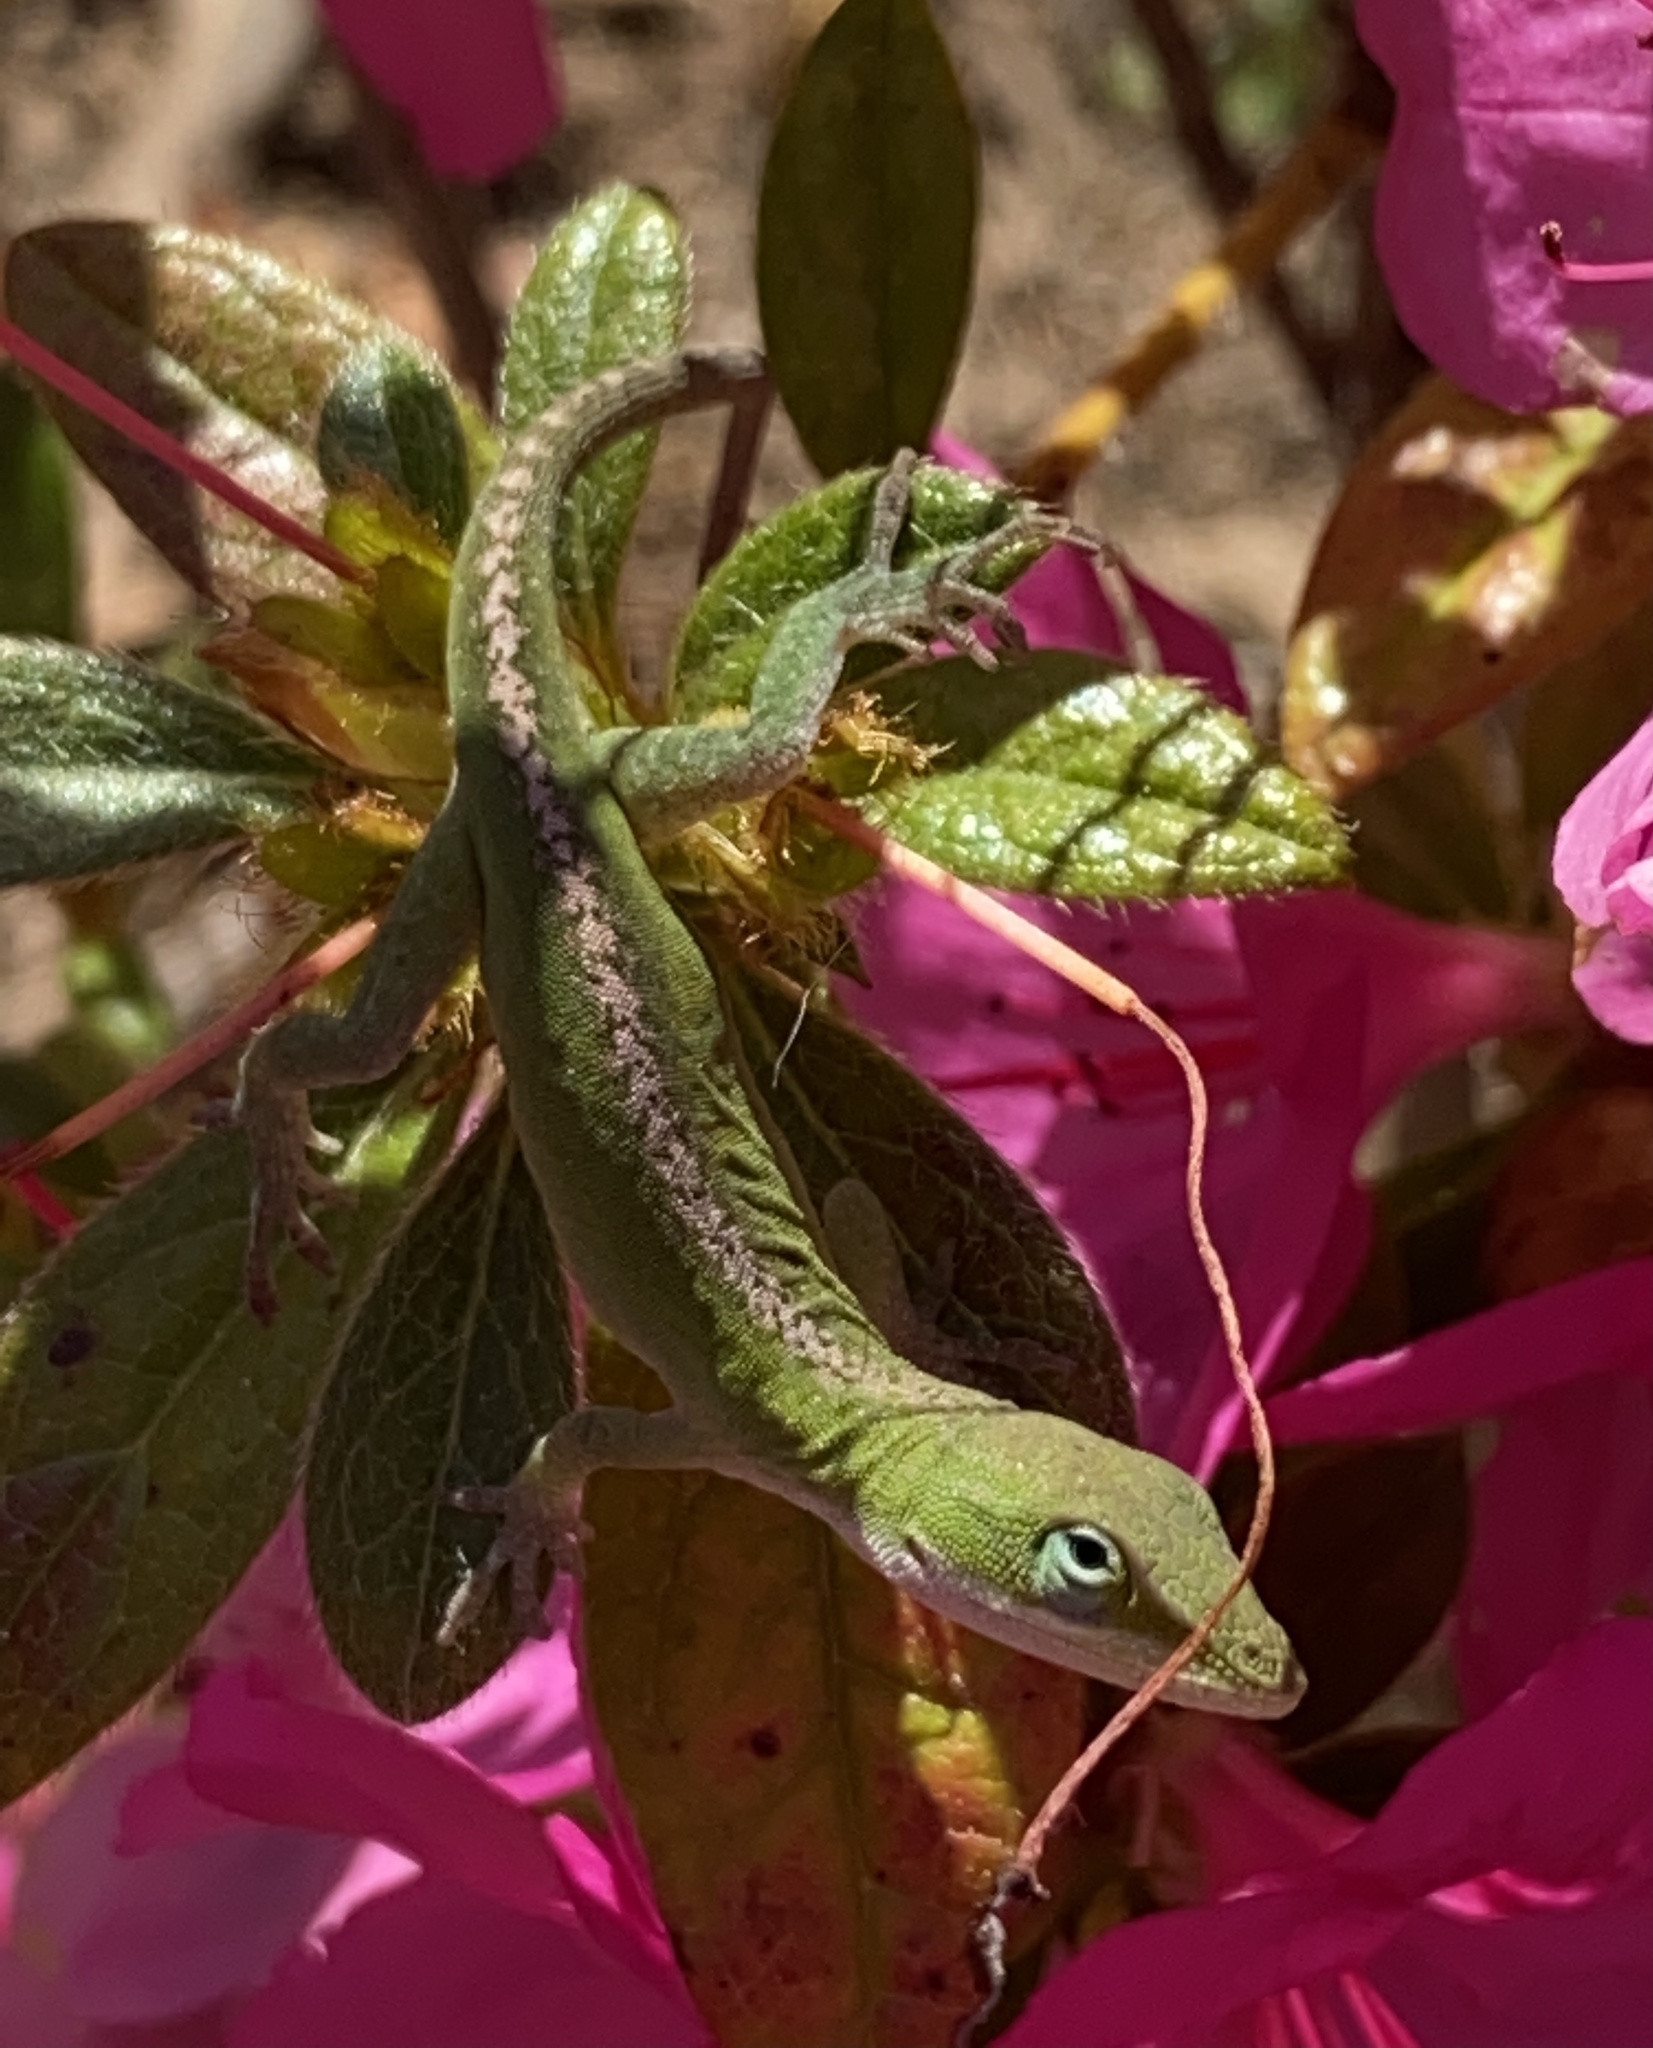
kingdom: Animalia
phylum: Chordata
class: Squamata
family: Dactyloidae
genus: Anolis
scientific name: Anolis carolinensis
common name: Green anole
